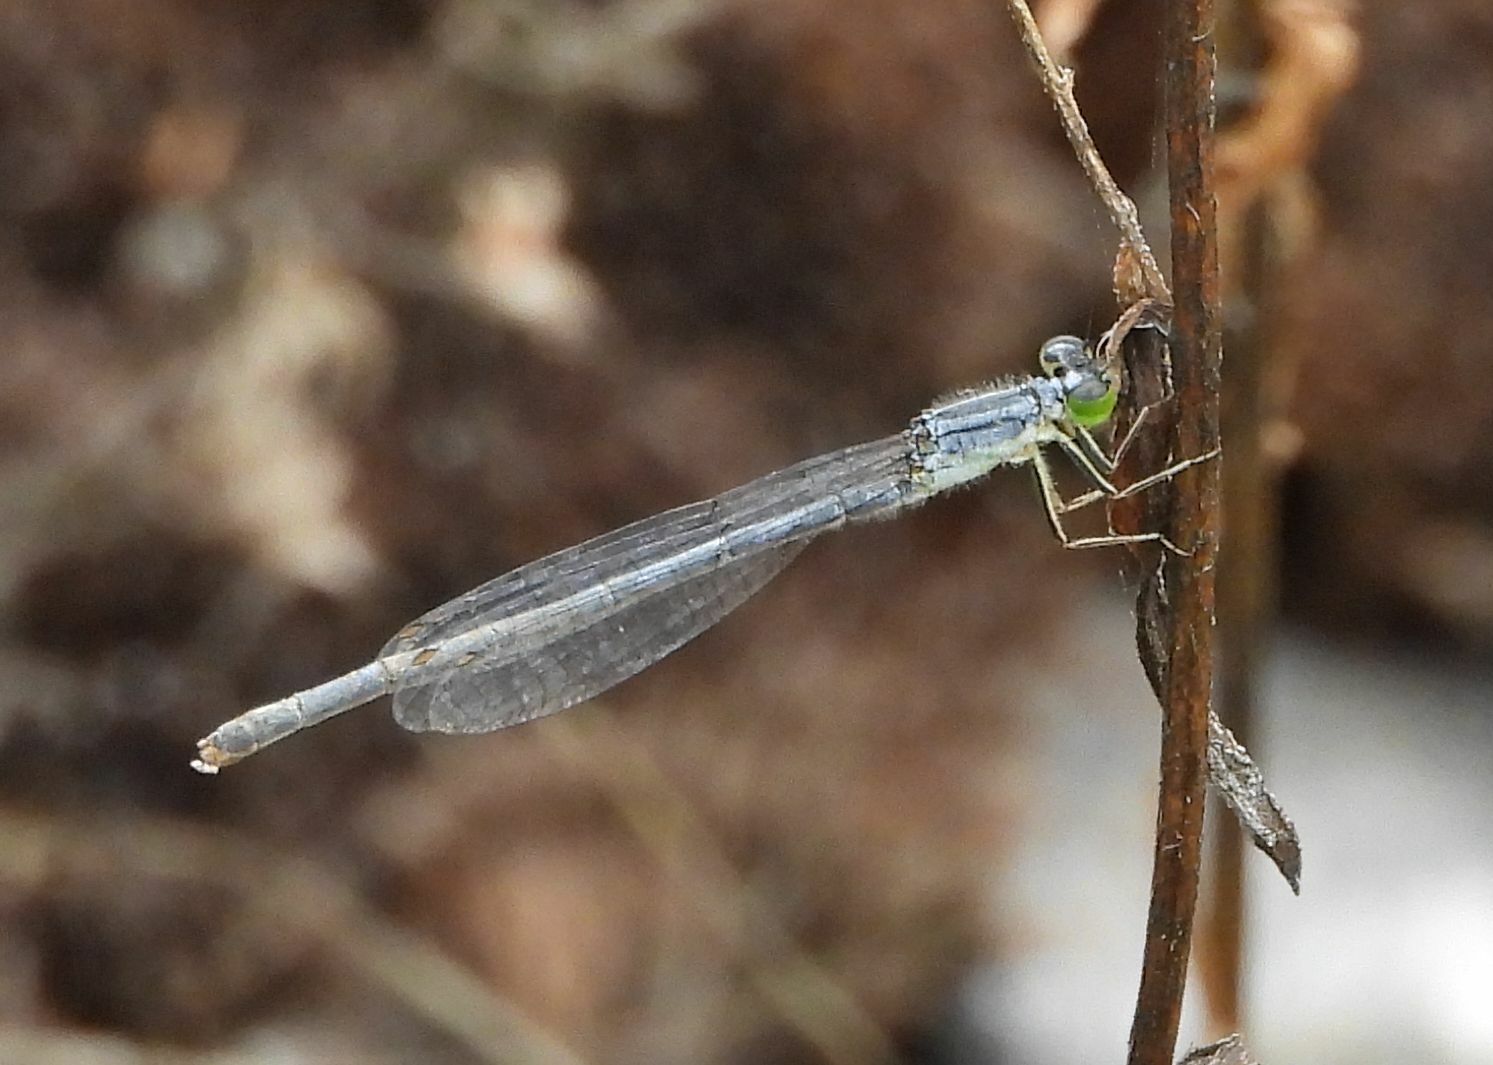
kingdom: Animalia
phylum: Arthropoda
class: Insecta
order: Odonata
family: Coenagrionidae
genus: Ischnura
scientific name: Ischnura verticalis
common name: Eastern forktail
